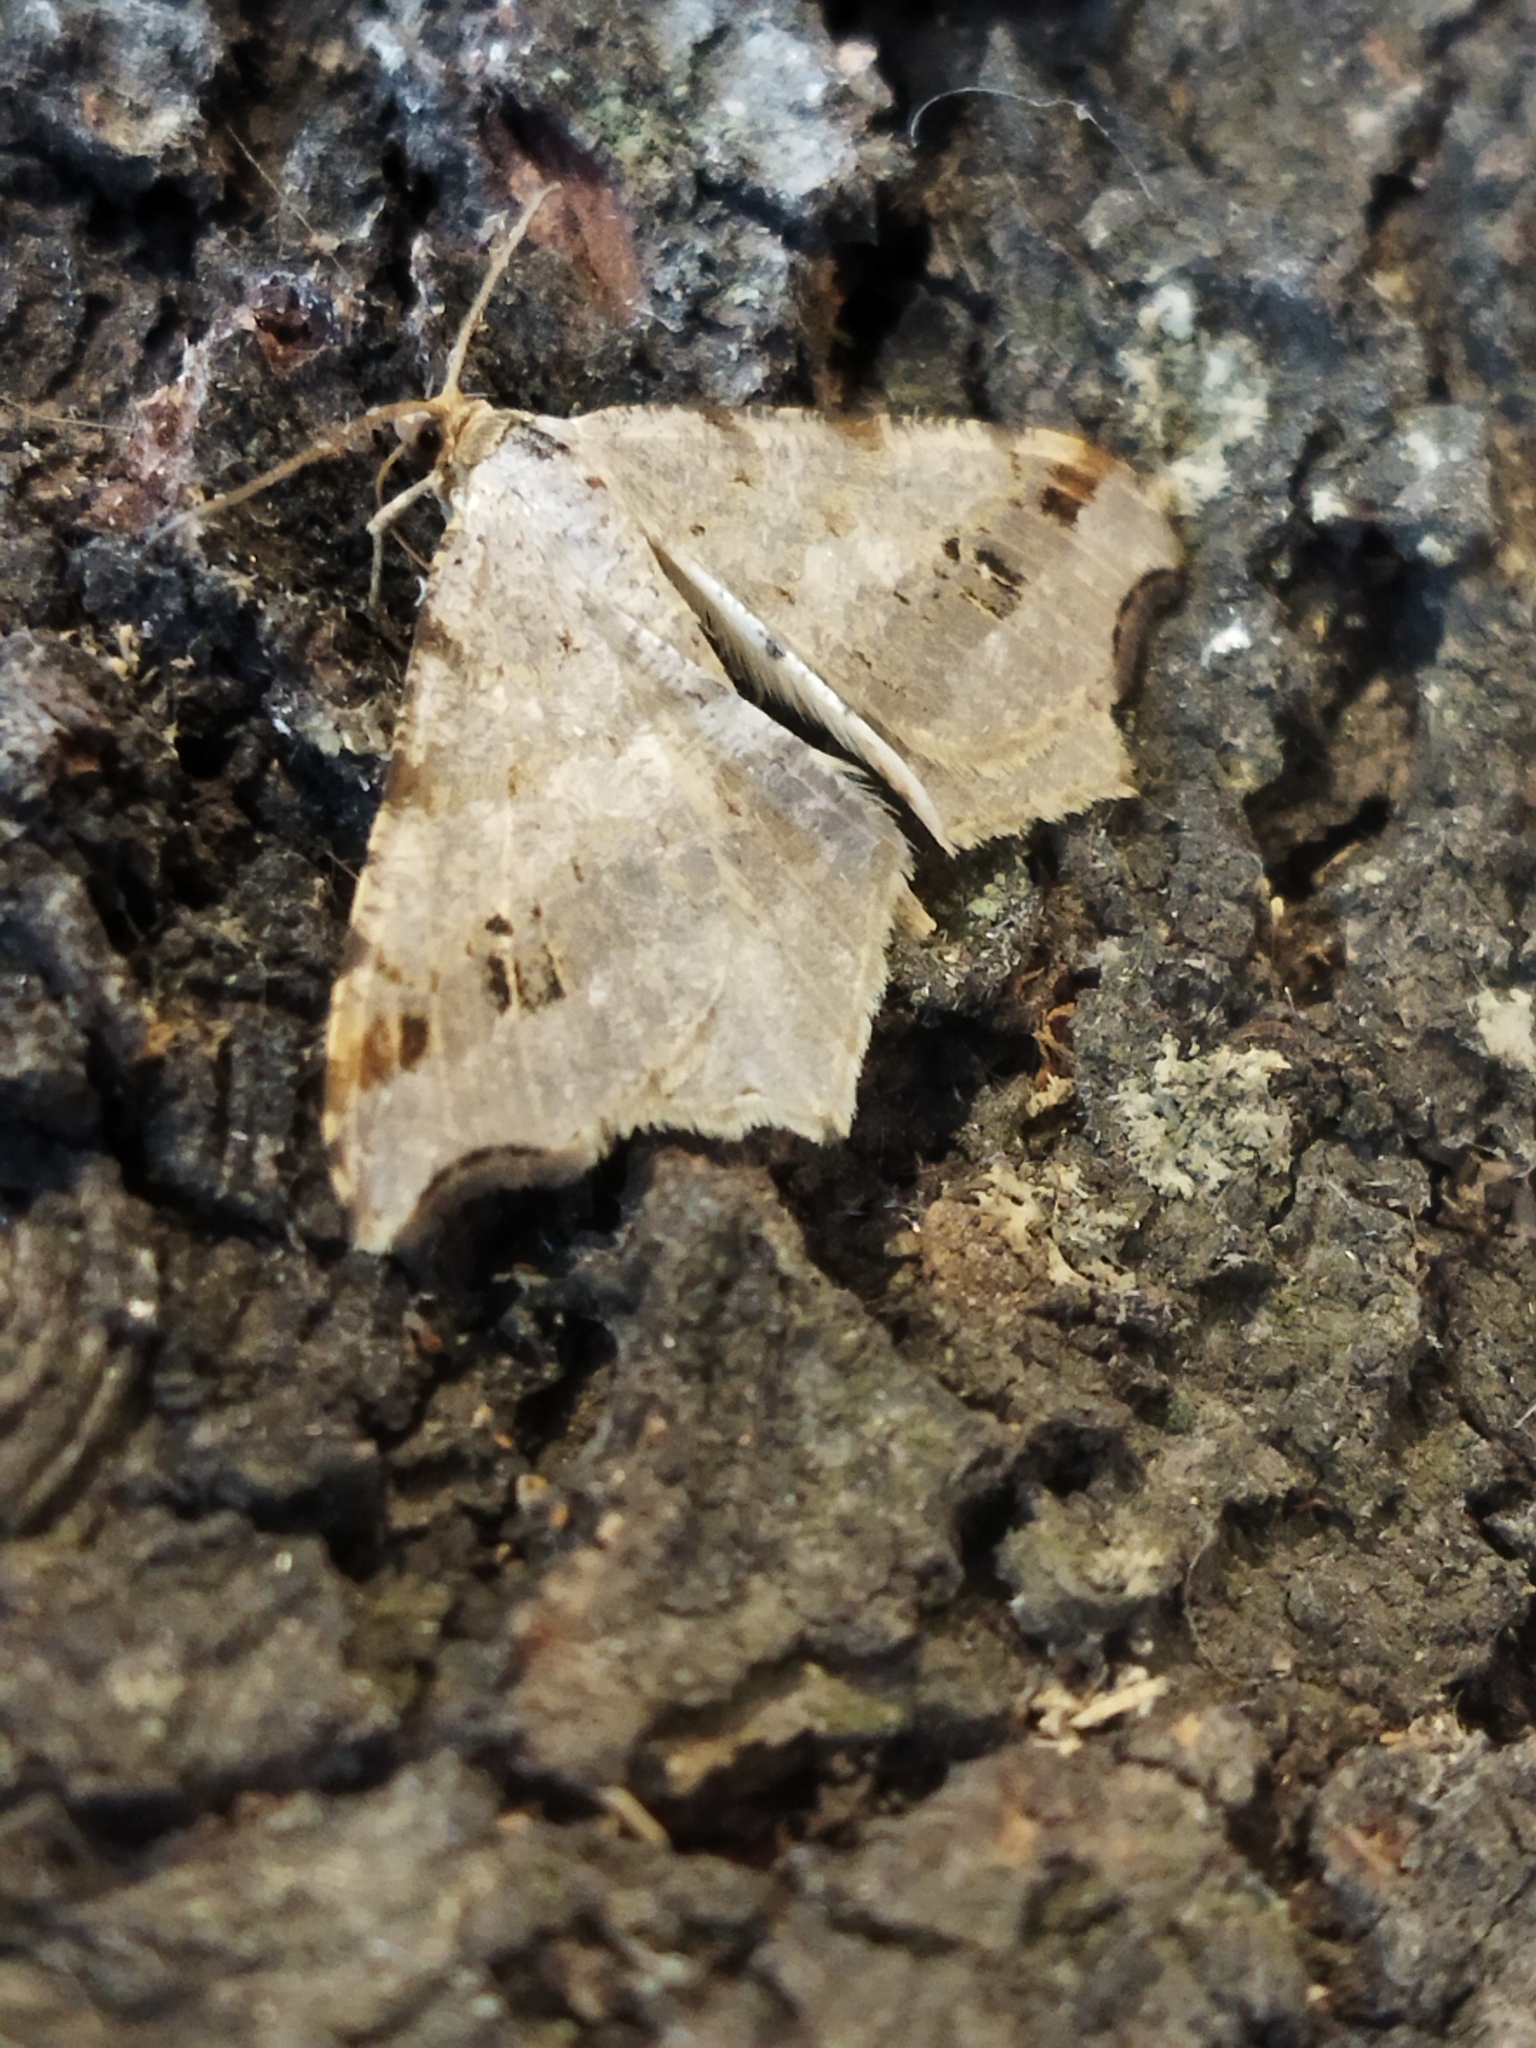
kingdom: Animalia
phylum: Arthropoda
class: Insecta
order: Lepidoptera
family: Geometridae
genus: Macaria
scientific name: Macaria alternata
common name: Sharp-angled peacock
